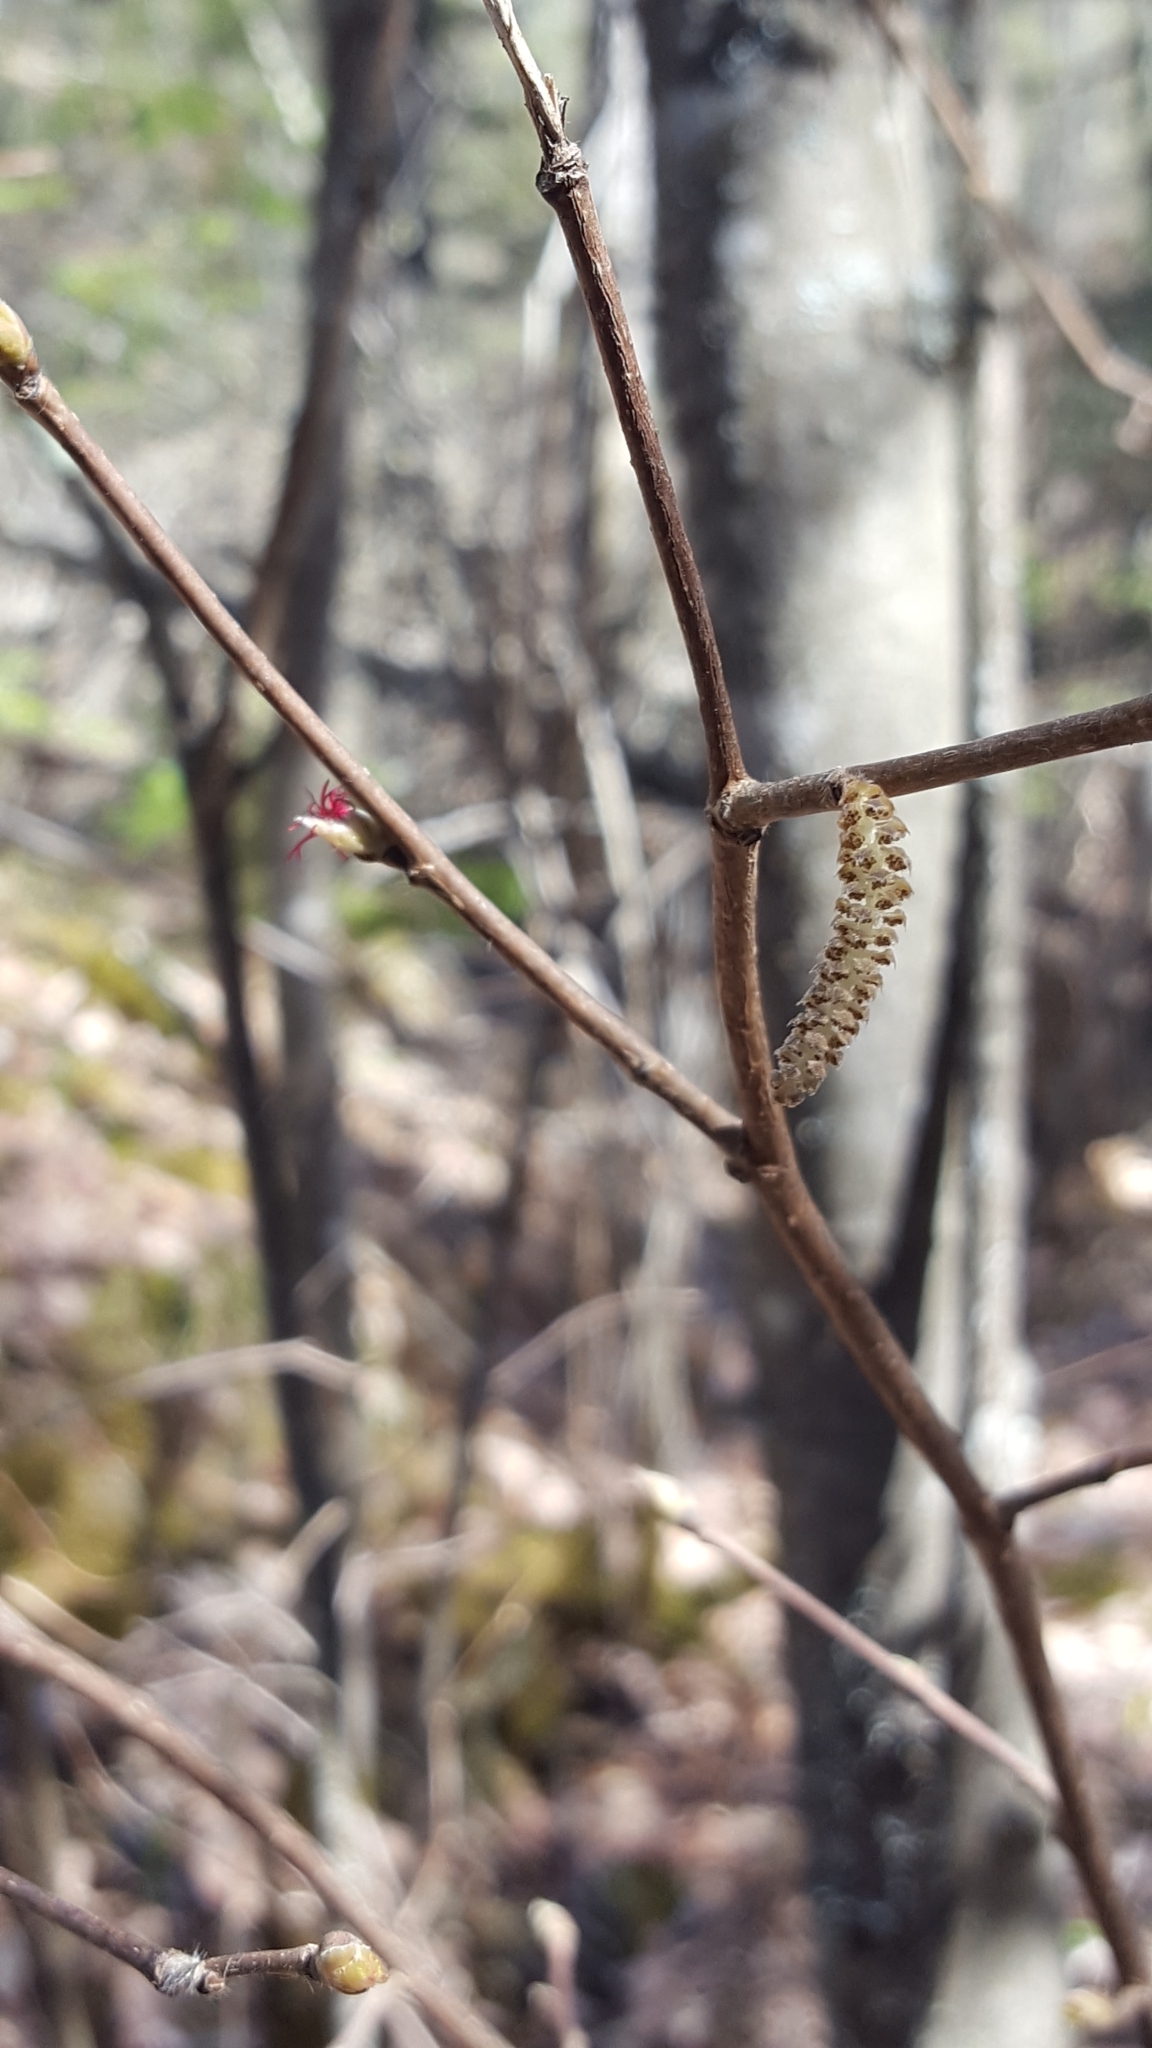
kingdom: Plantae
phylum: Tracheophyta
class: Magnoliopsida
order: Fagales
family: Betulaceae
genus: Corylus
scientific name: Corylus cornuta
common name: Beaked hazel
